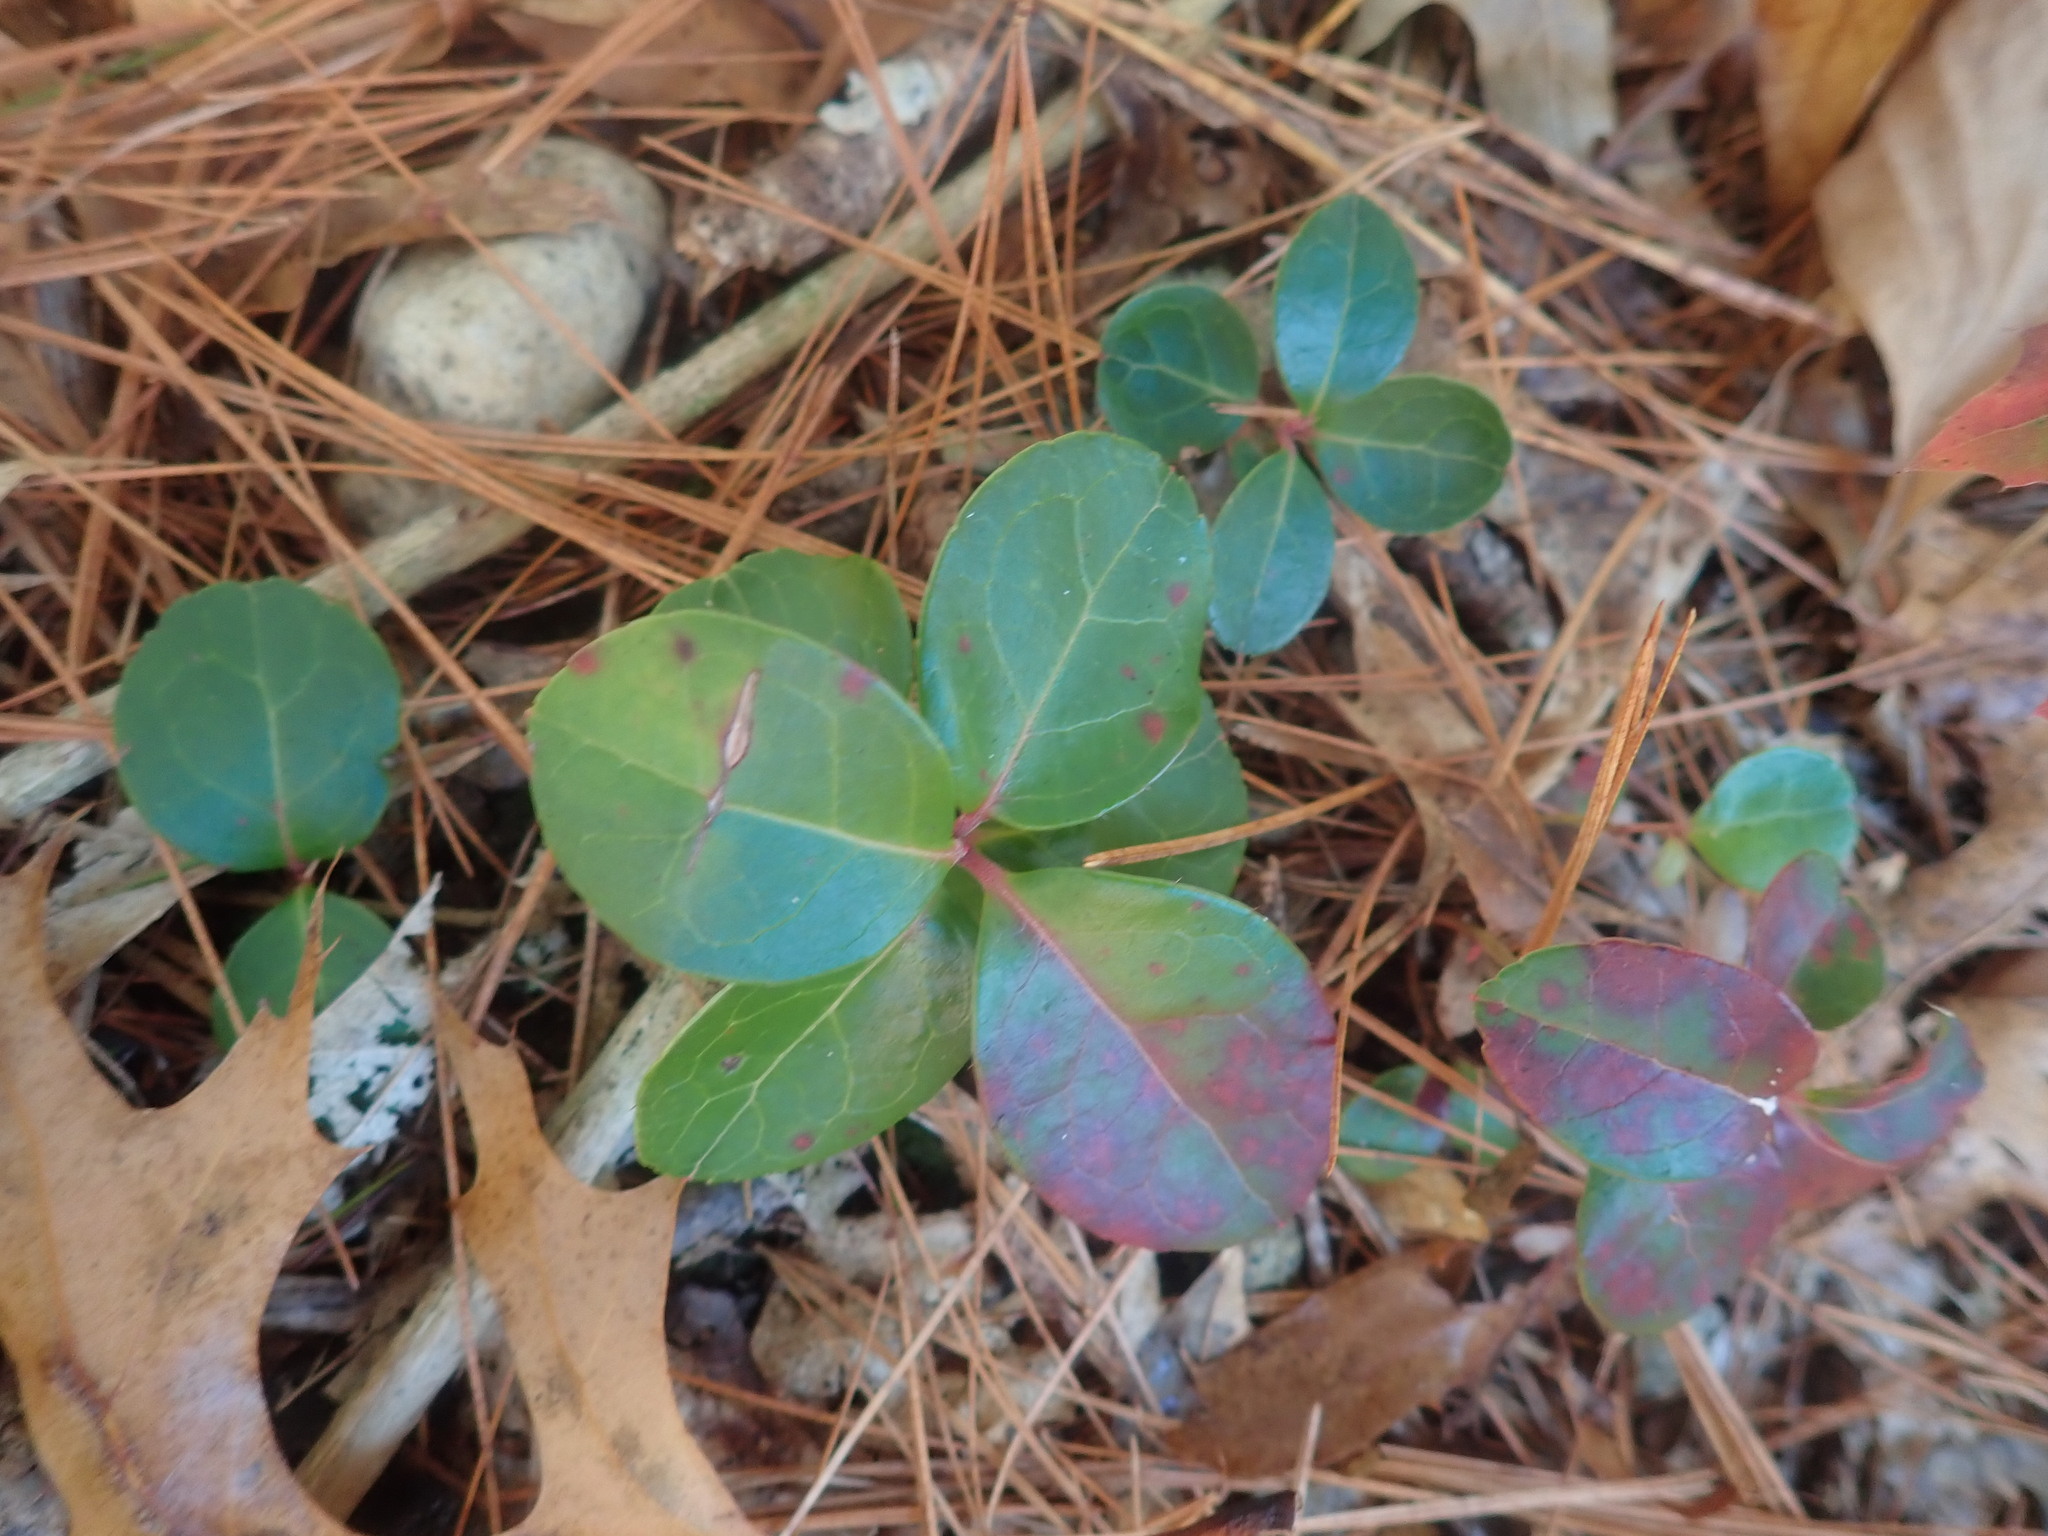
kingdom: Plantae
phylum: Tracheophyta
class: Magnoliopsida
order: Ericales
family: Ericaceae
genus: Gaultheria
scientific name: Gaultheria procumbens
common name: Checkerberry
